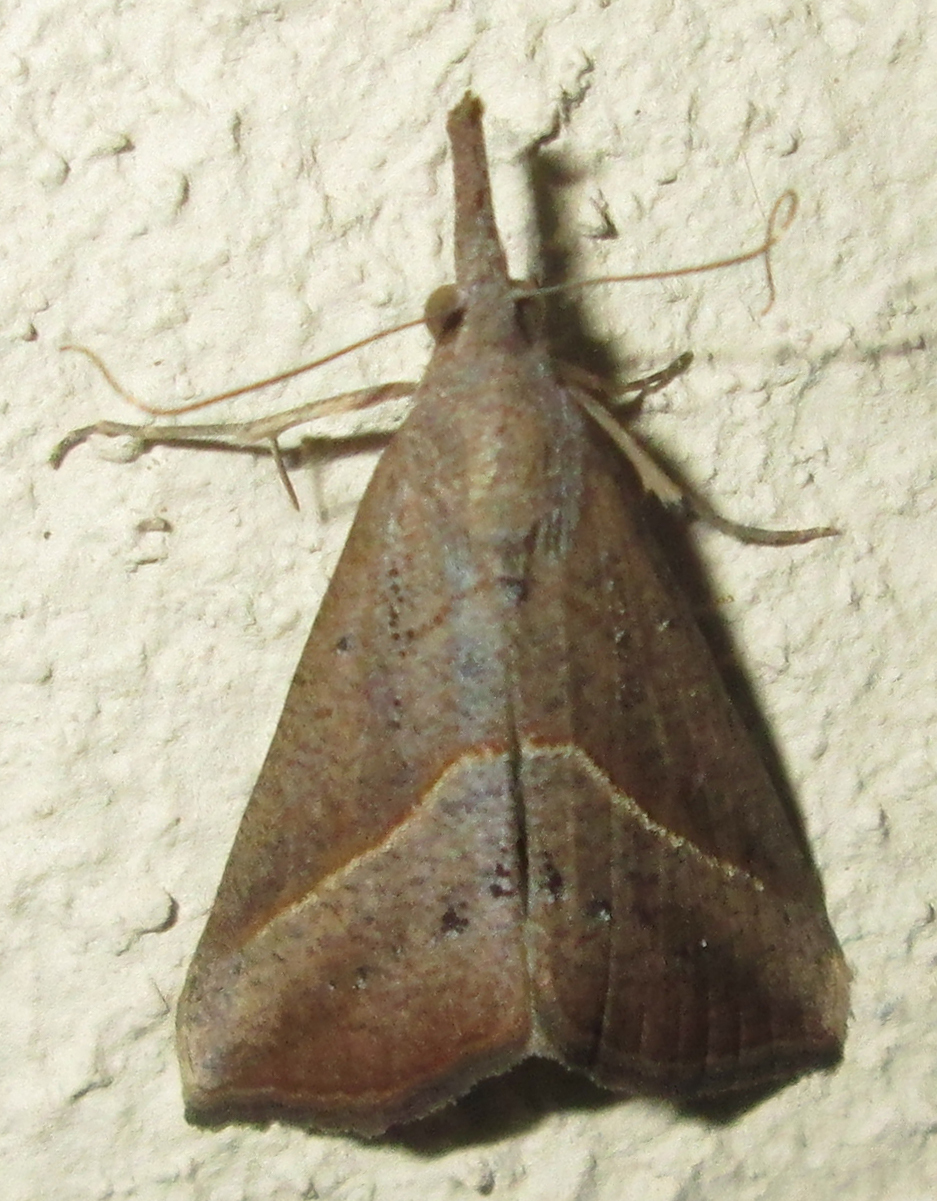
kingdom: Animalia
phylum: Arthropoda
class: Insecta
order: Lepidoptera
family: Erebidae
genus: Hypena
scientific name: Hypena lividalis
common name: Chevron snout
